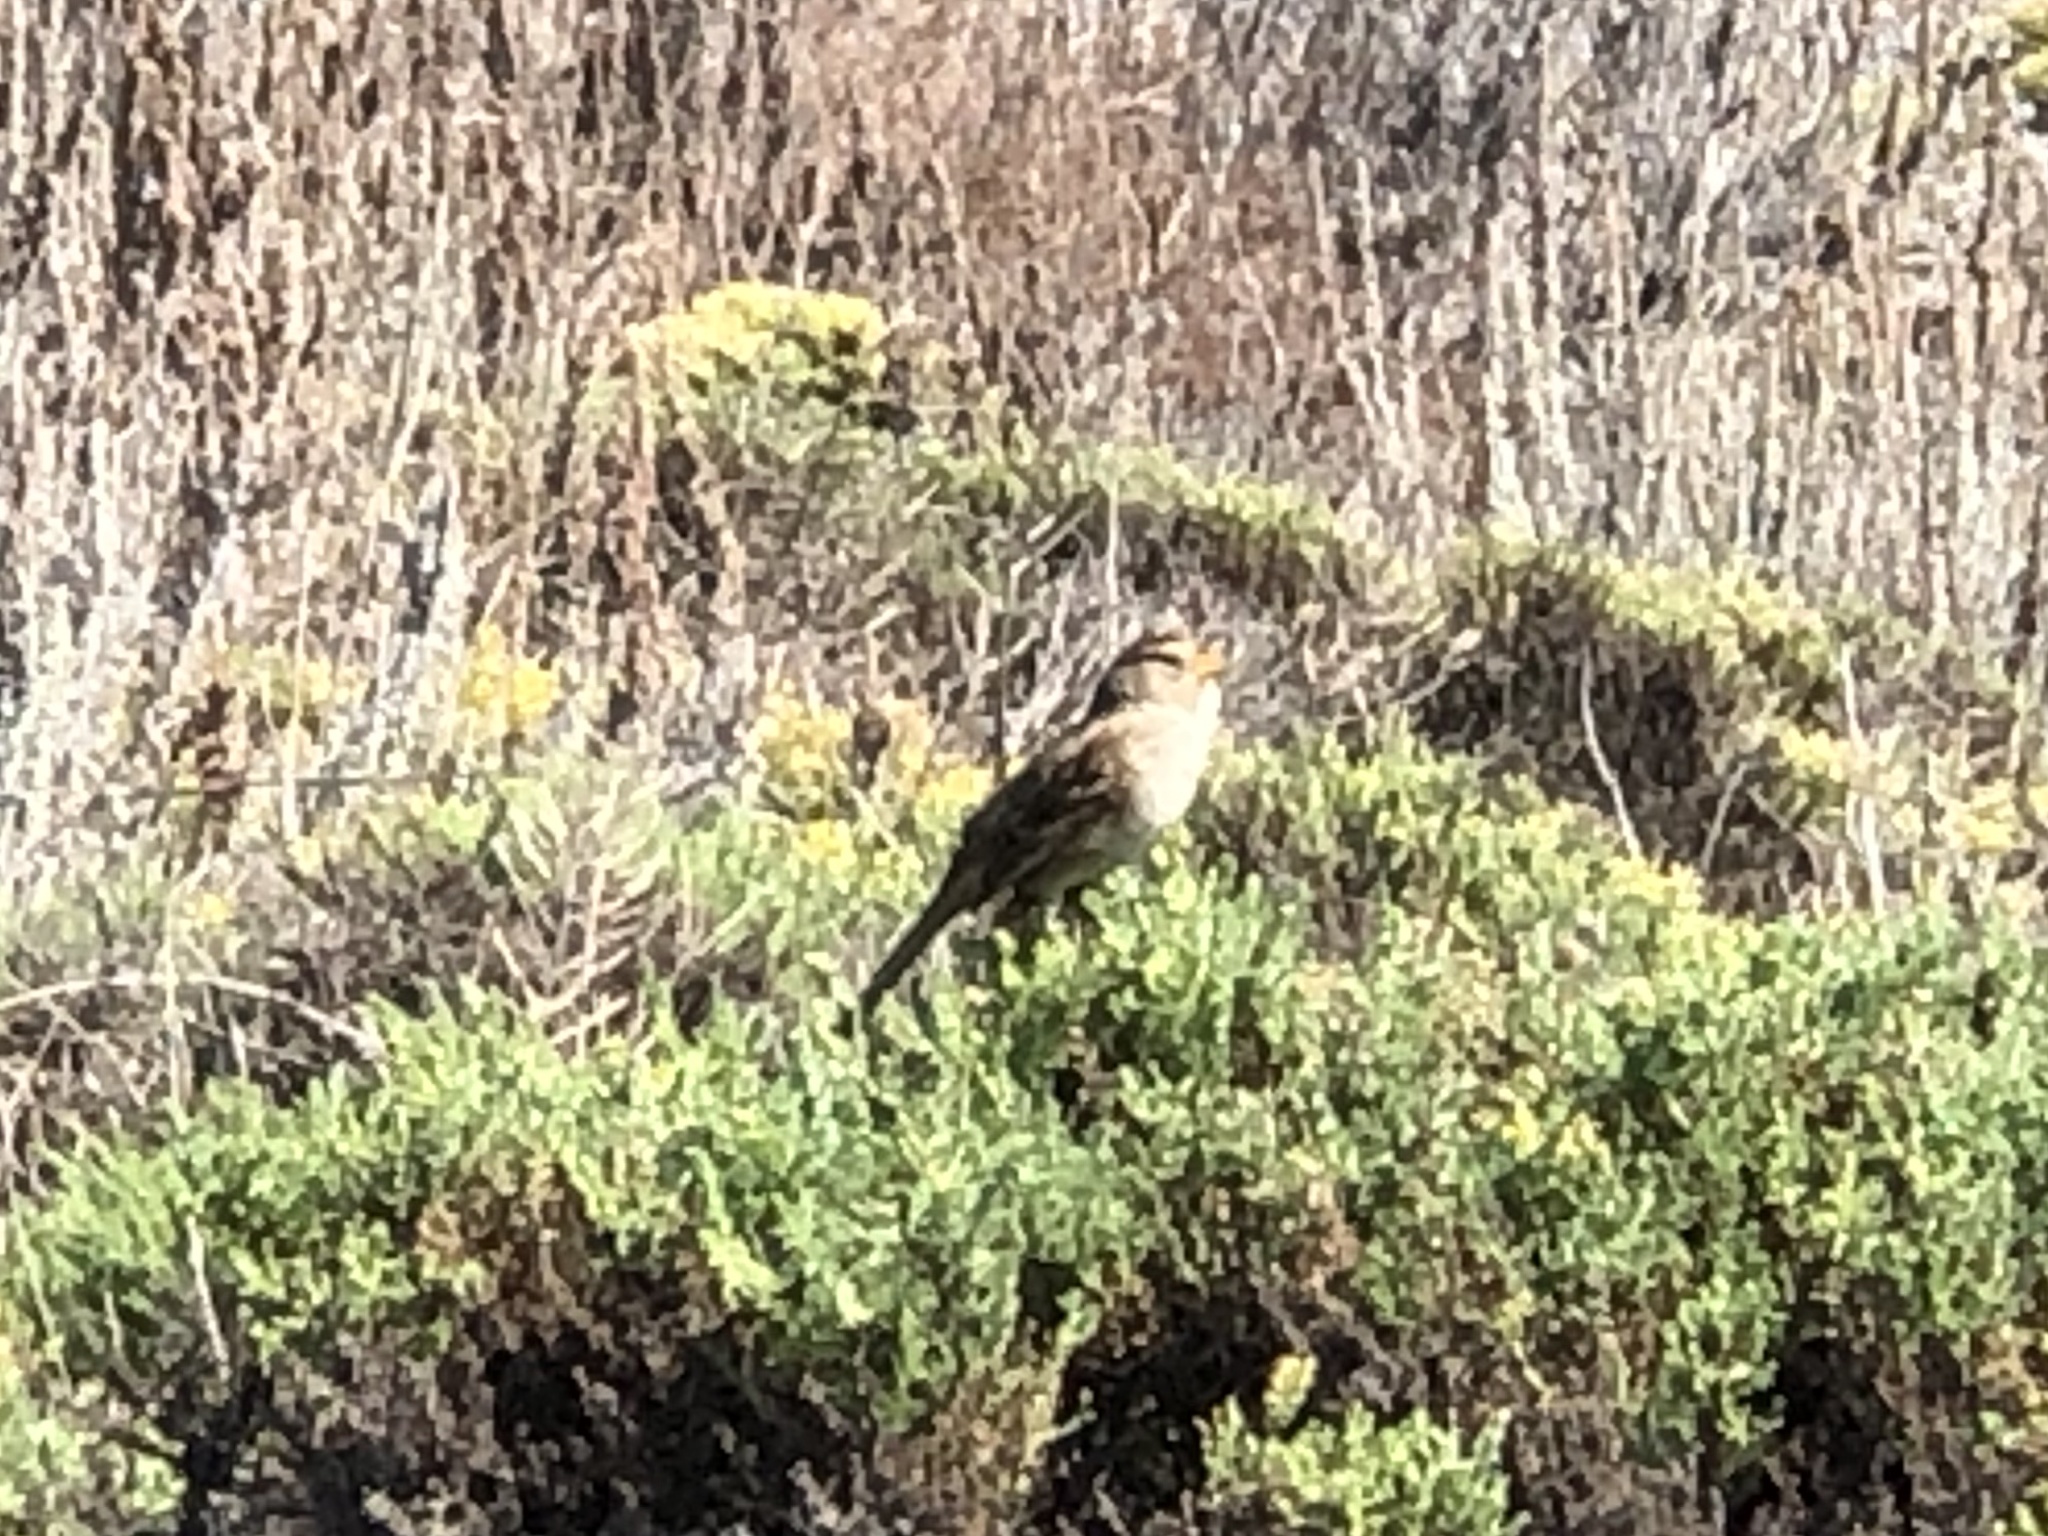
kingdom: Animalia
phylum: Chordata
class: Aves
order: Passeriformes
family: Passerellidae
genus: Zonotrichia
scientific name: Zonotrichia atricapilla
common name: Golden-crowned sparrow
